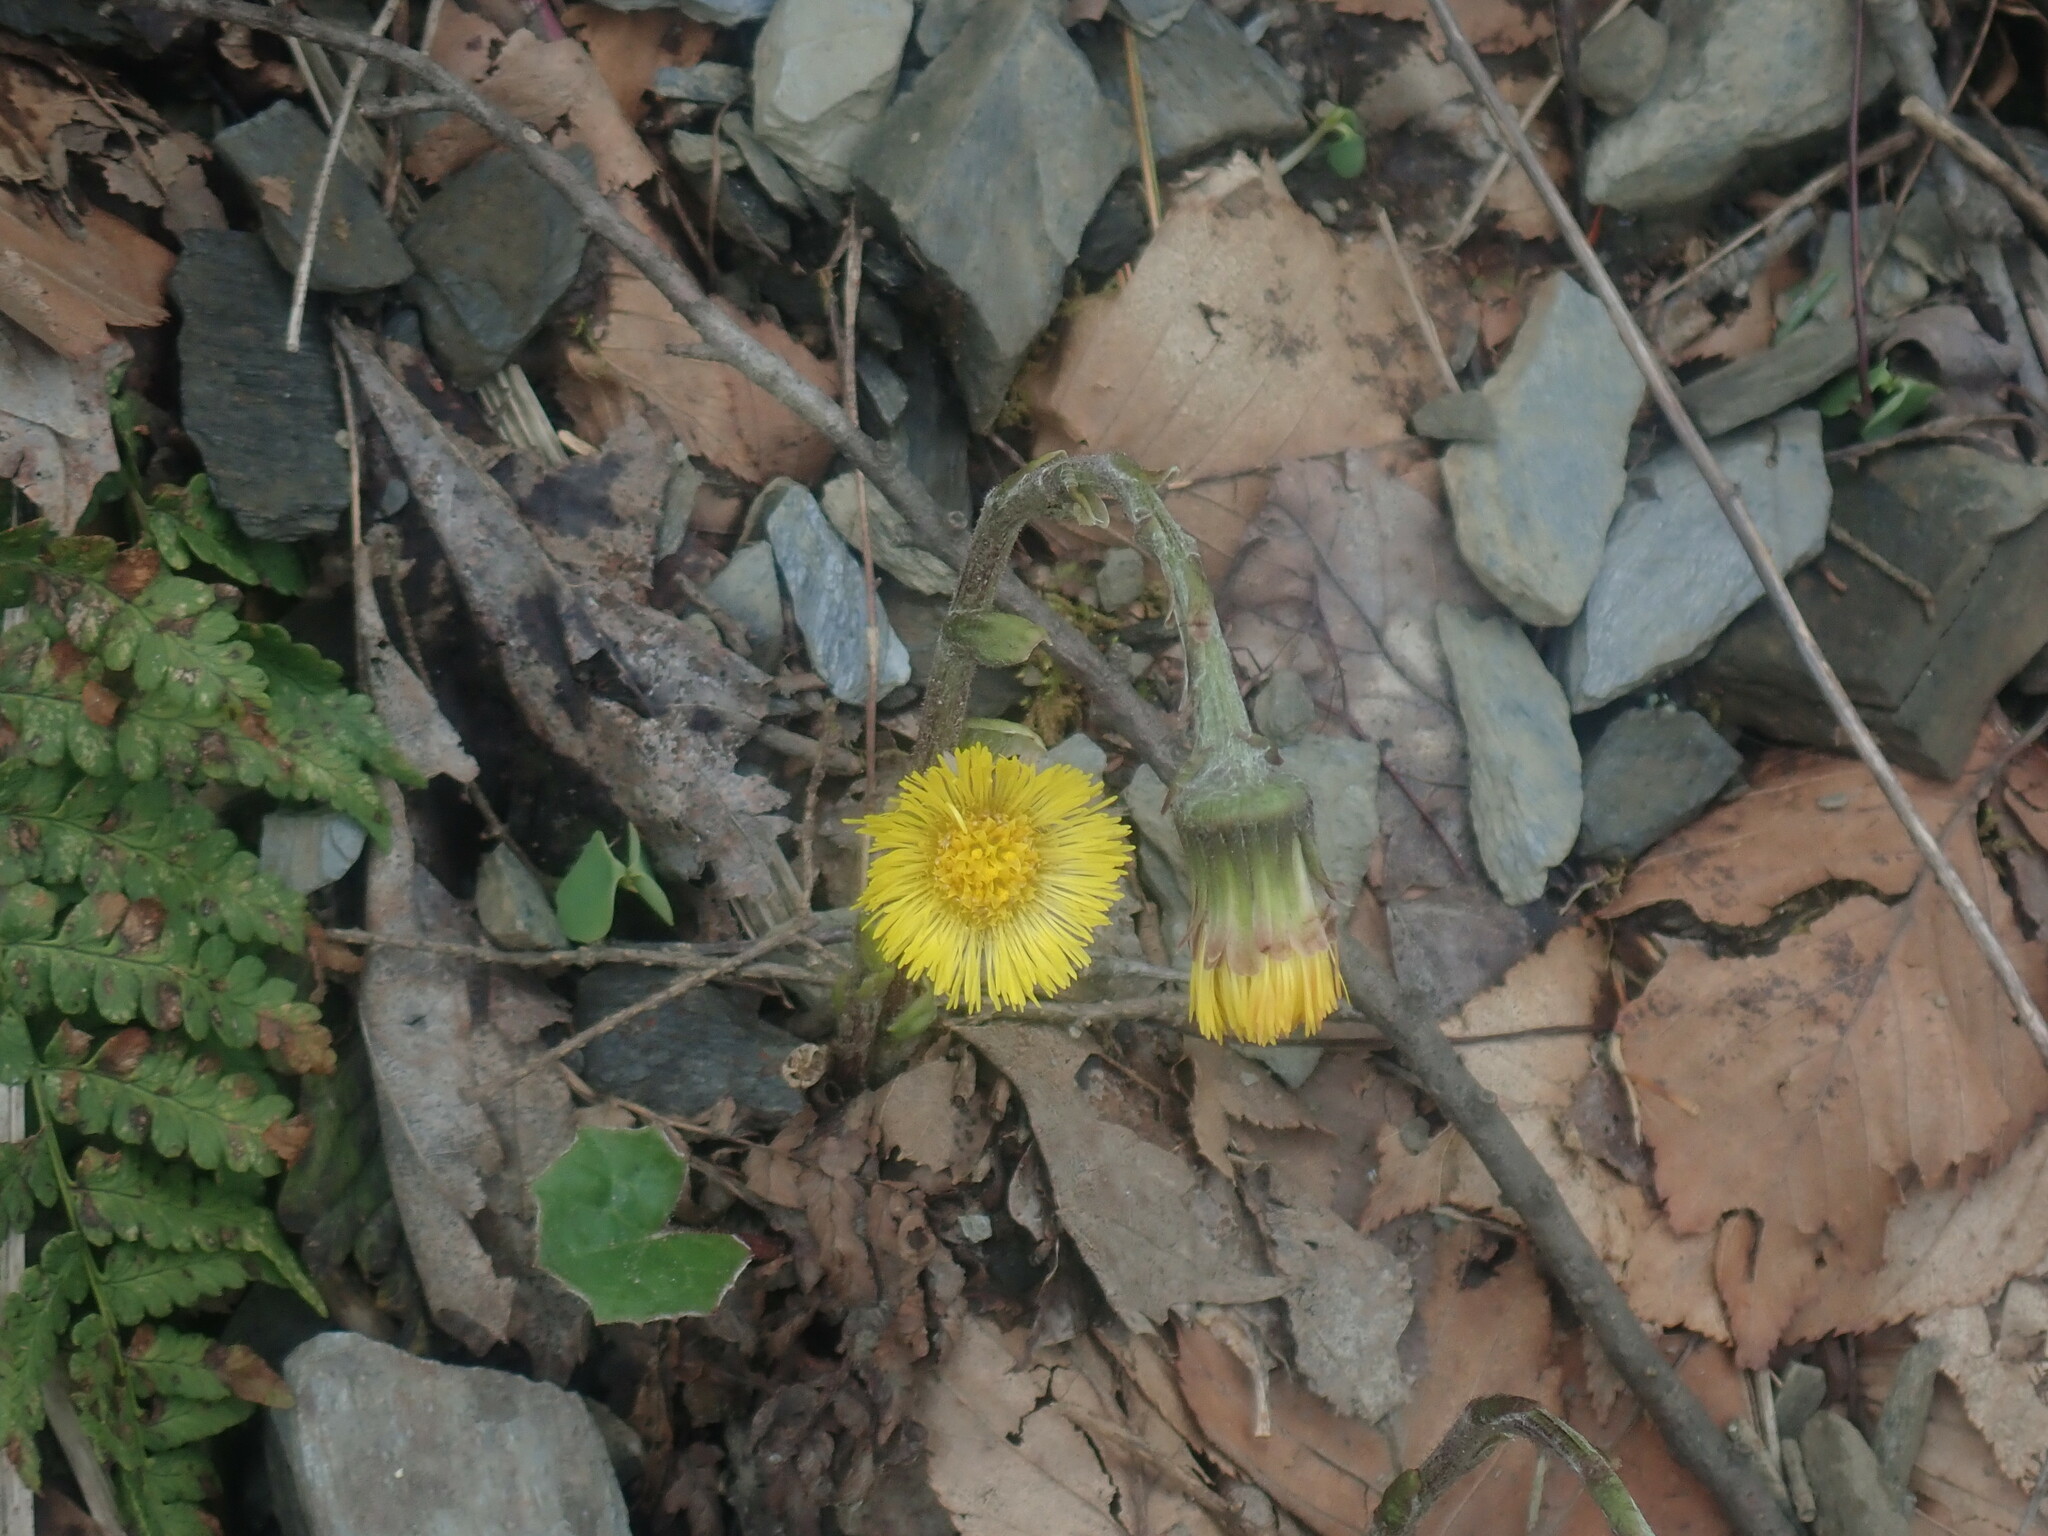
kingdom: Plantae
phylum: Tracheophyta
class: Magnoliopsida
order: Asterales
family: Asteraceae
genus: Tussilago
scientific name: Tussilago farfara
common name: Coltsfoot
